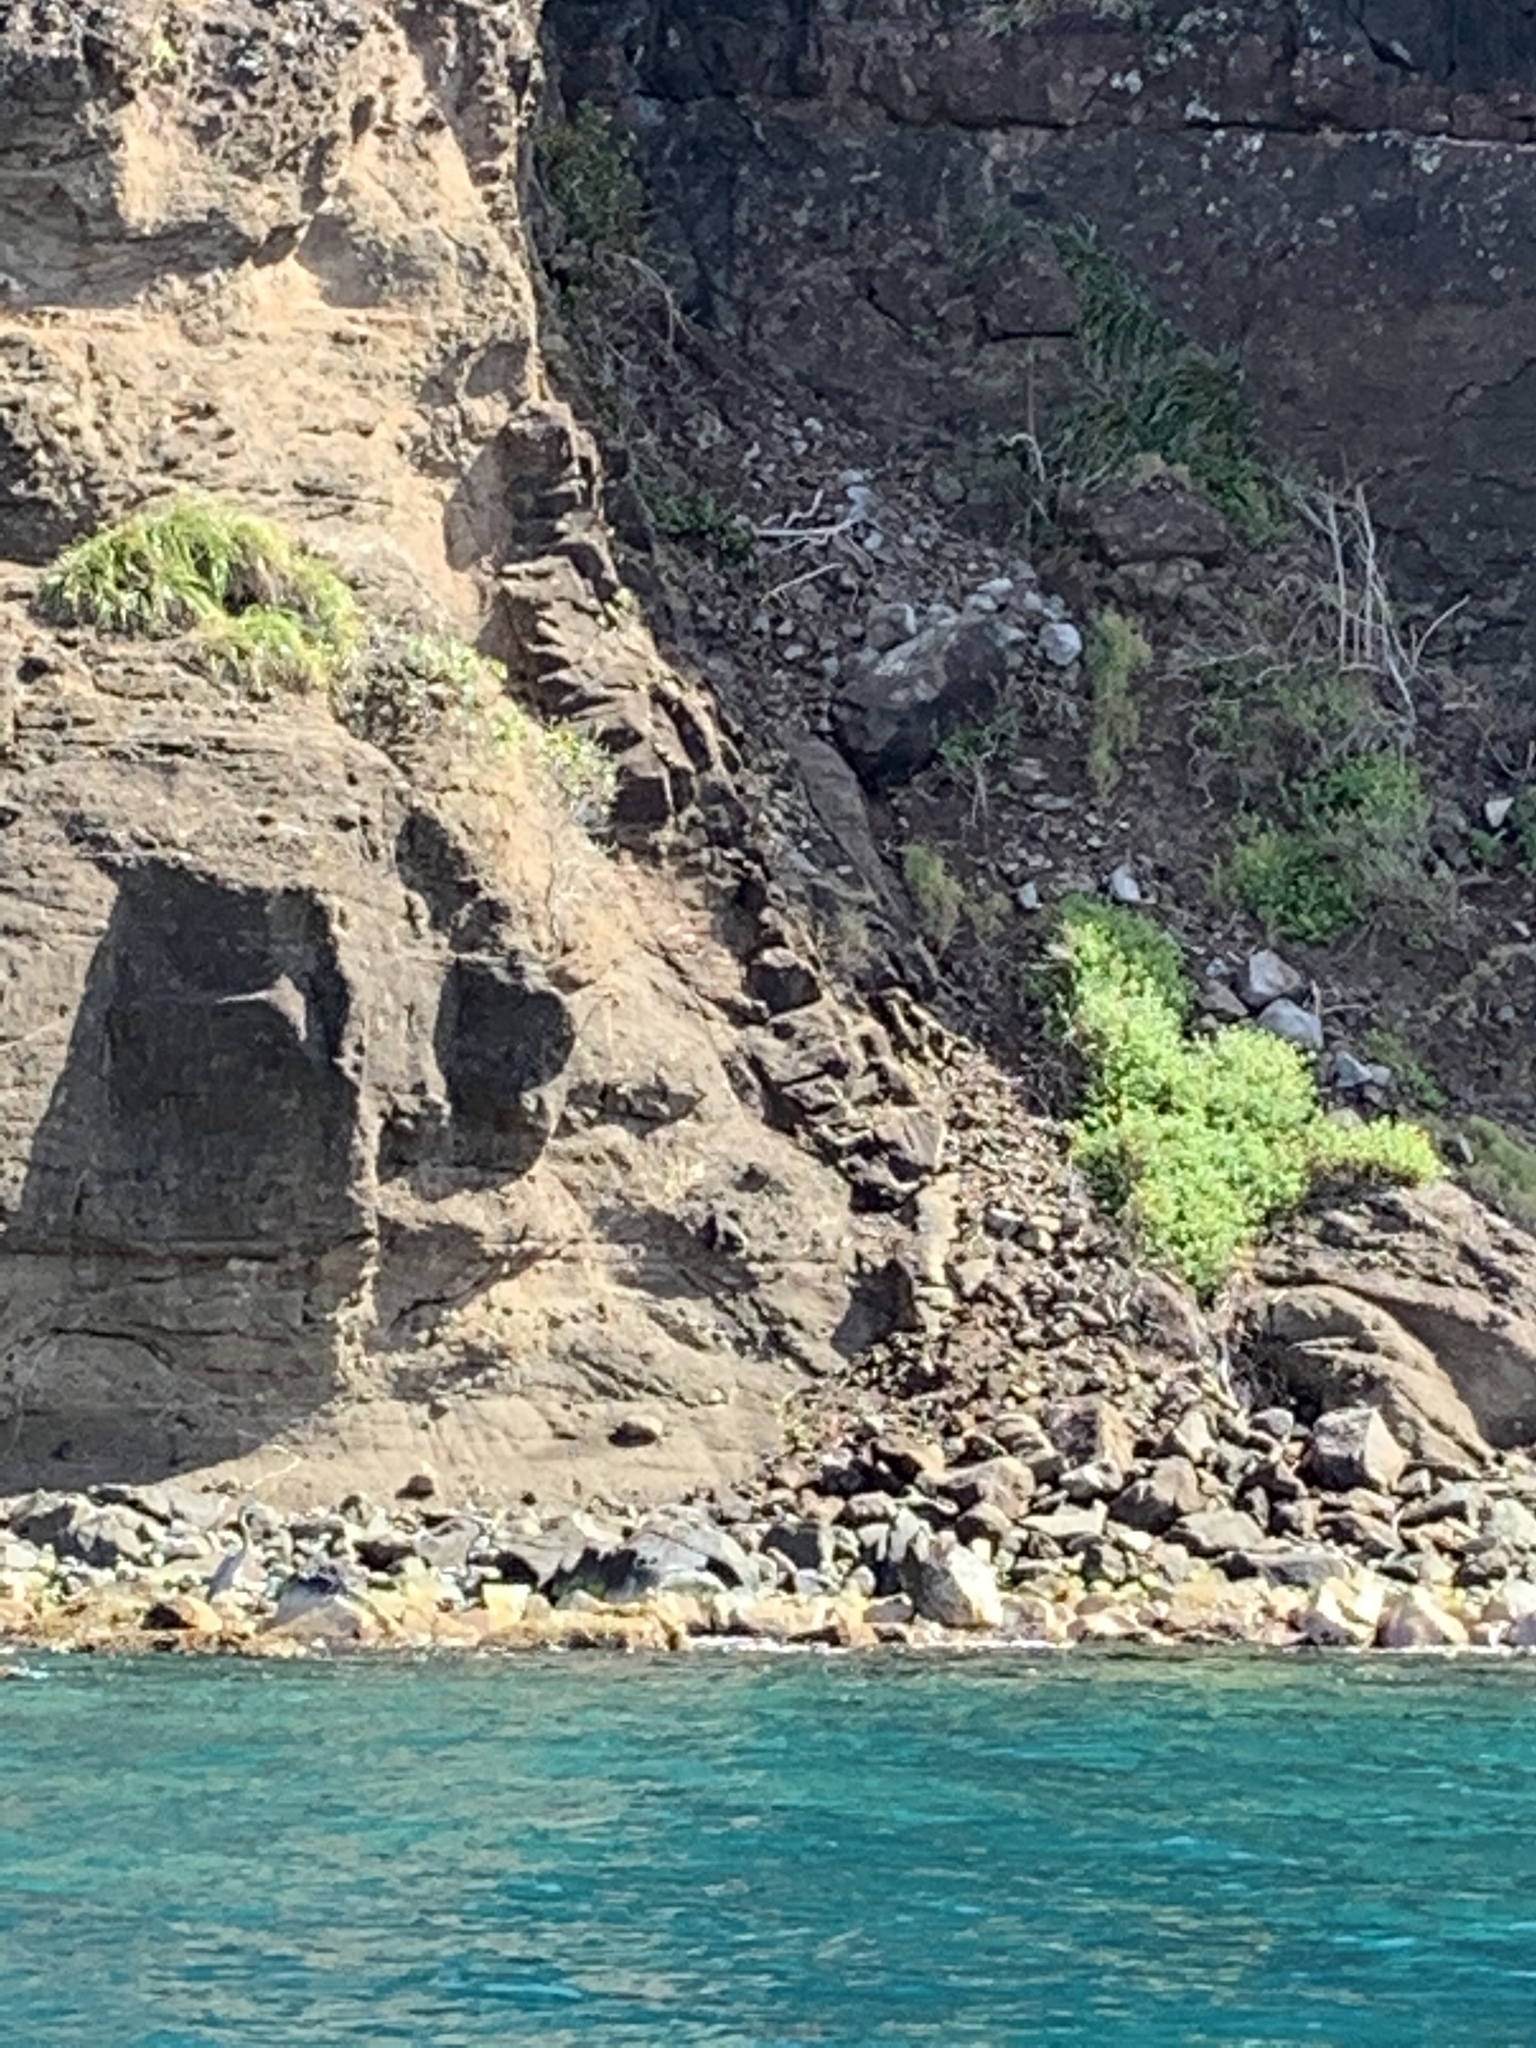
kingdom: Animalia
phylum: Chordata
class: Aves
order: Pelecaniformes
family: Ardeidae
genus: Ardea
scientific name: Ardea herodias
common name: Great blue heron
